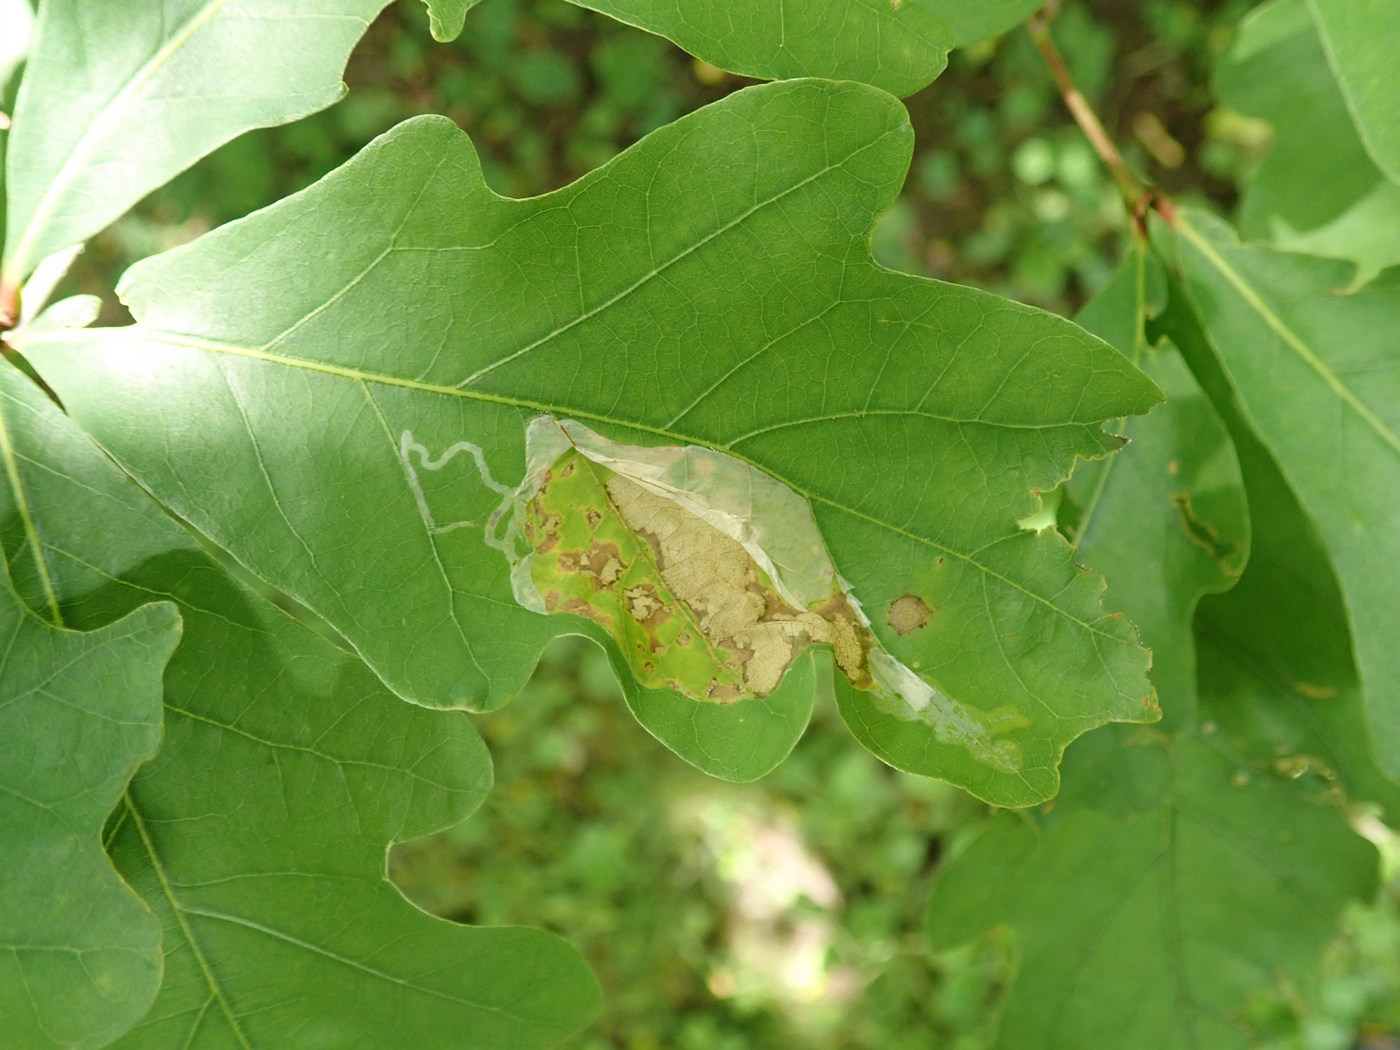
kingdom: Animalia
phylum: Arthropoda
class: Insecta
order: Lepidoptera
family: Gracillariidae
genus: Cryptolectica
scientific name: Cryptolectica
